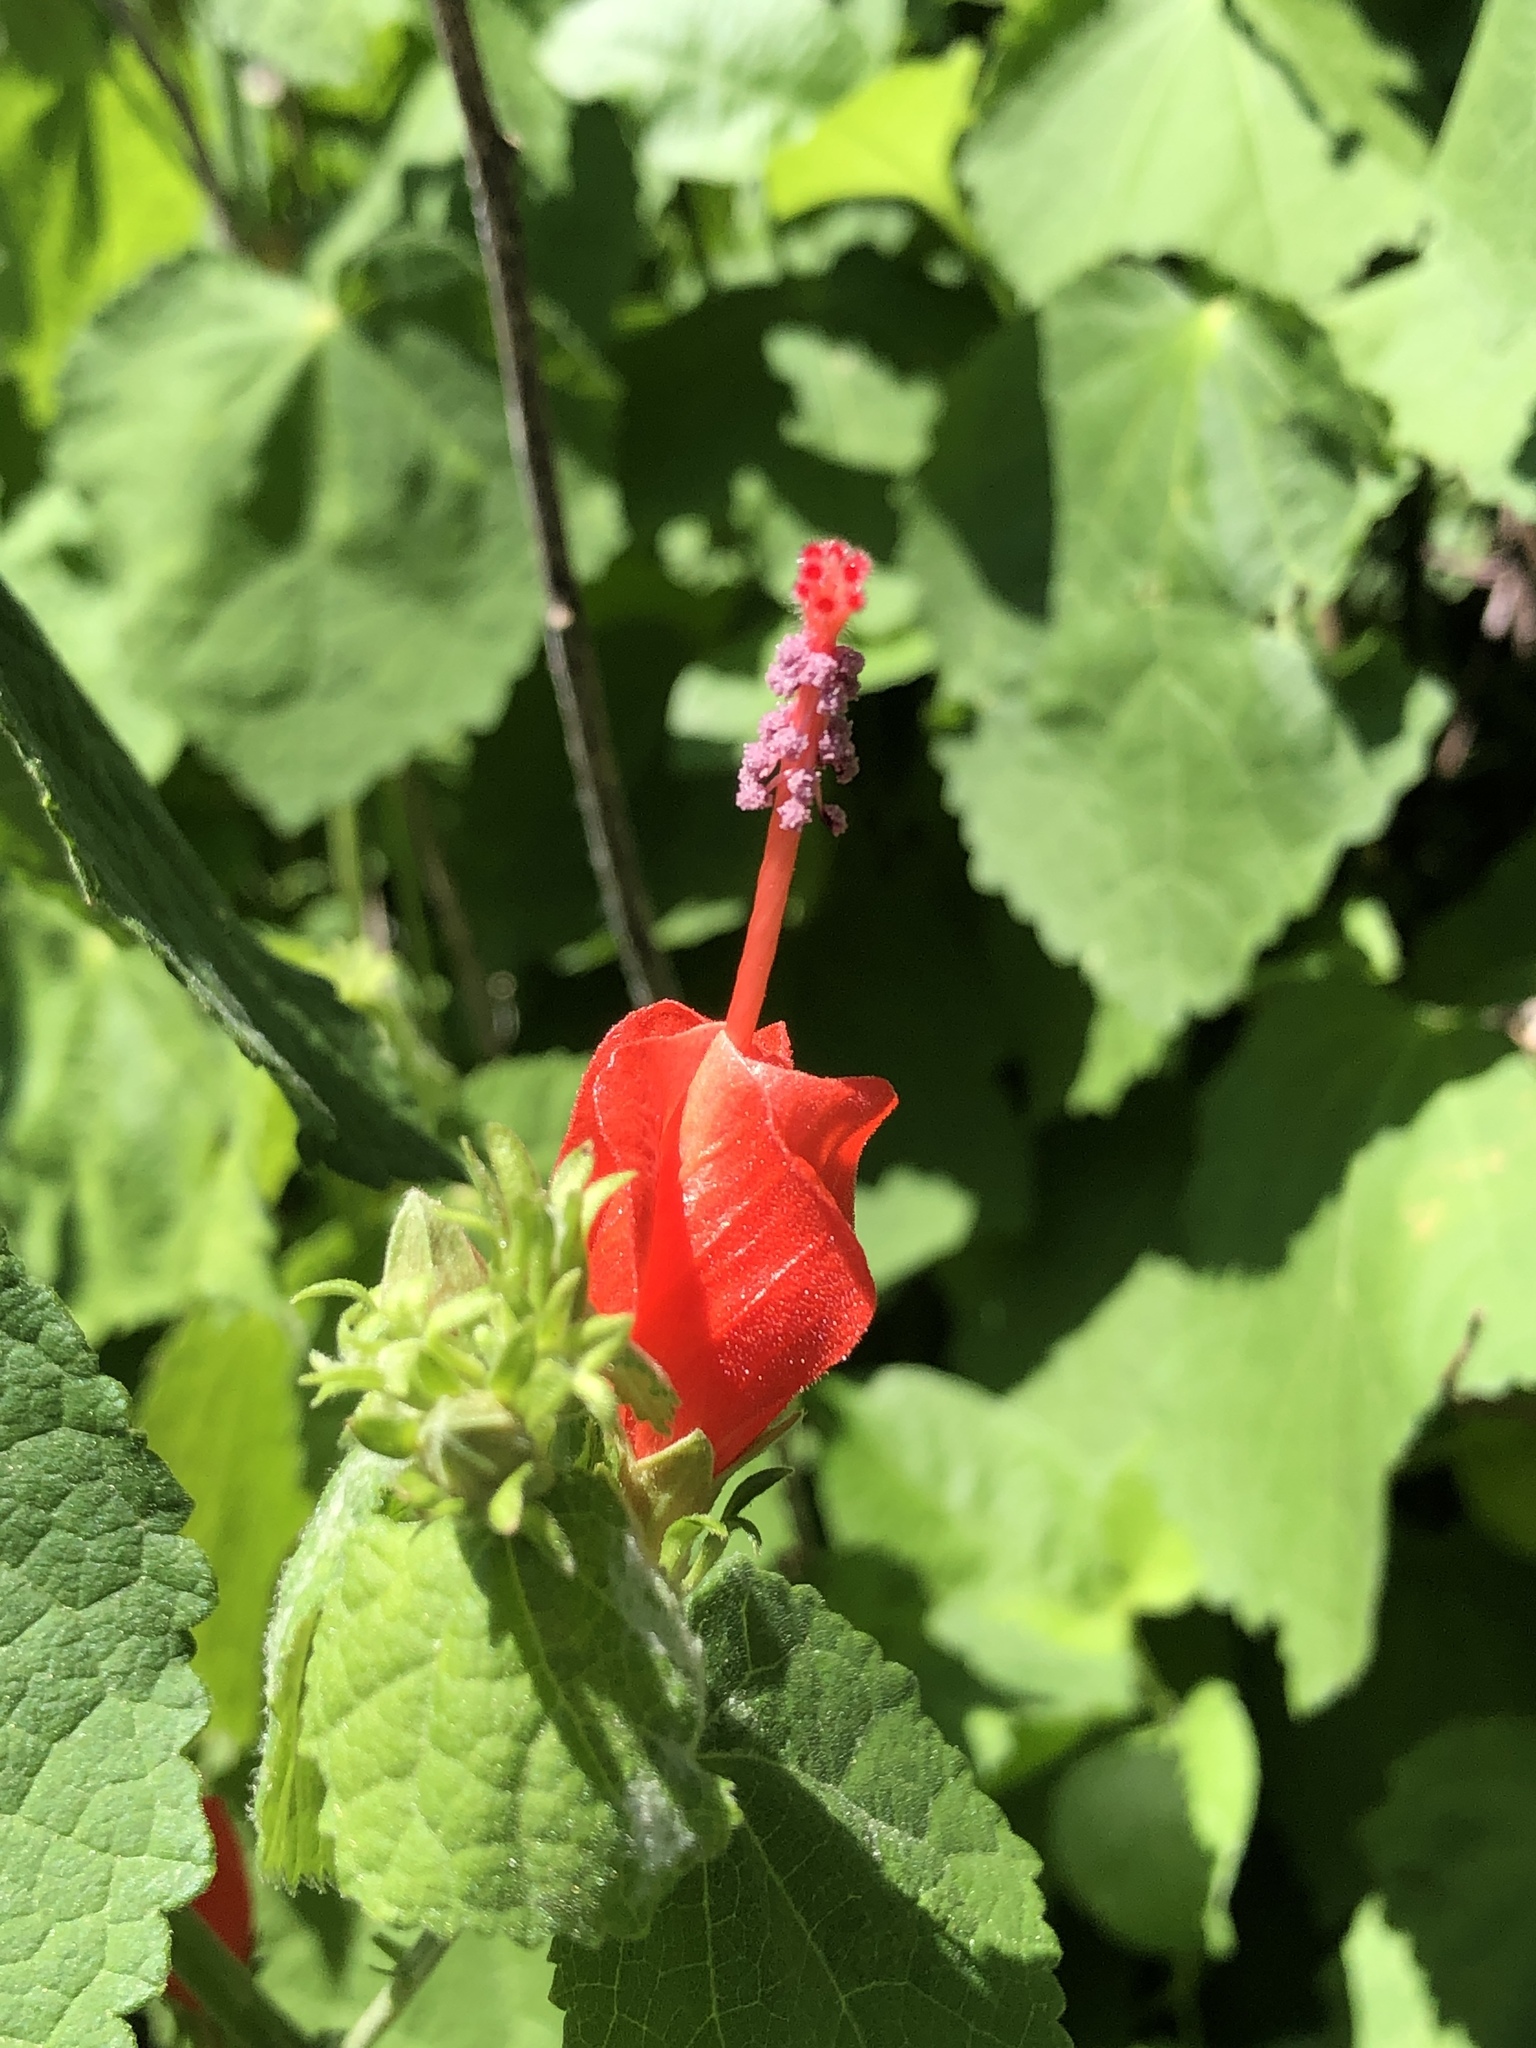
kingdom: Plantae
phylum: Tracheophyta
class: Magnoliopsida
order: Malvales
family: Malvaceae
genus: Malvaviscus
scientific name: Malvaviscus arboreus
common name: Wax mallow
